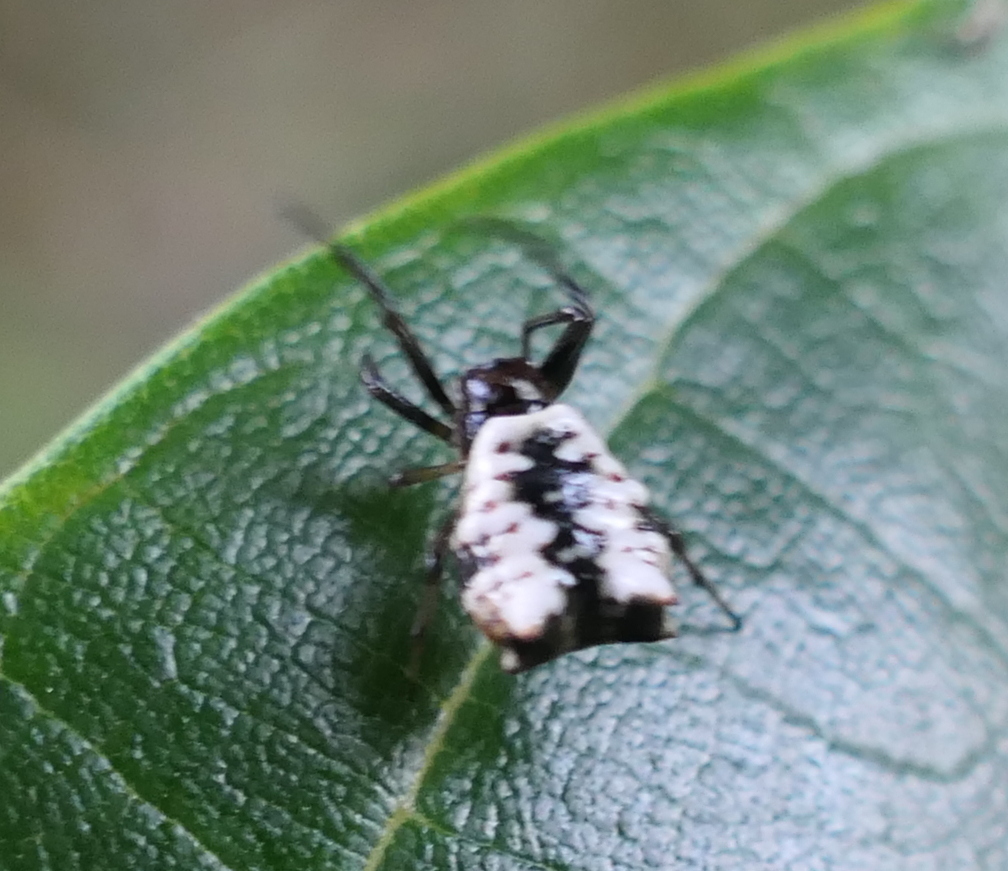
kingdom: Animalia
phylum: Arthropoda
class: Arachnida
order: Araneae
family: Araneidae
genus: Micrathena
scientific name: Micrathena patruelis
